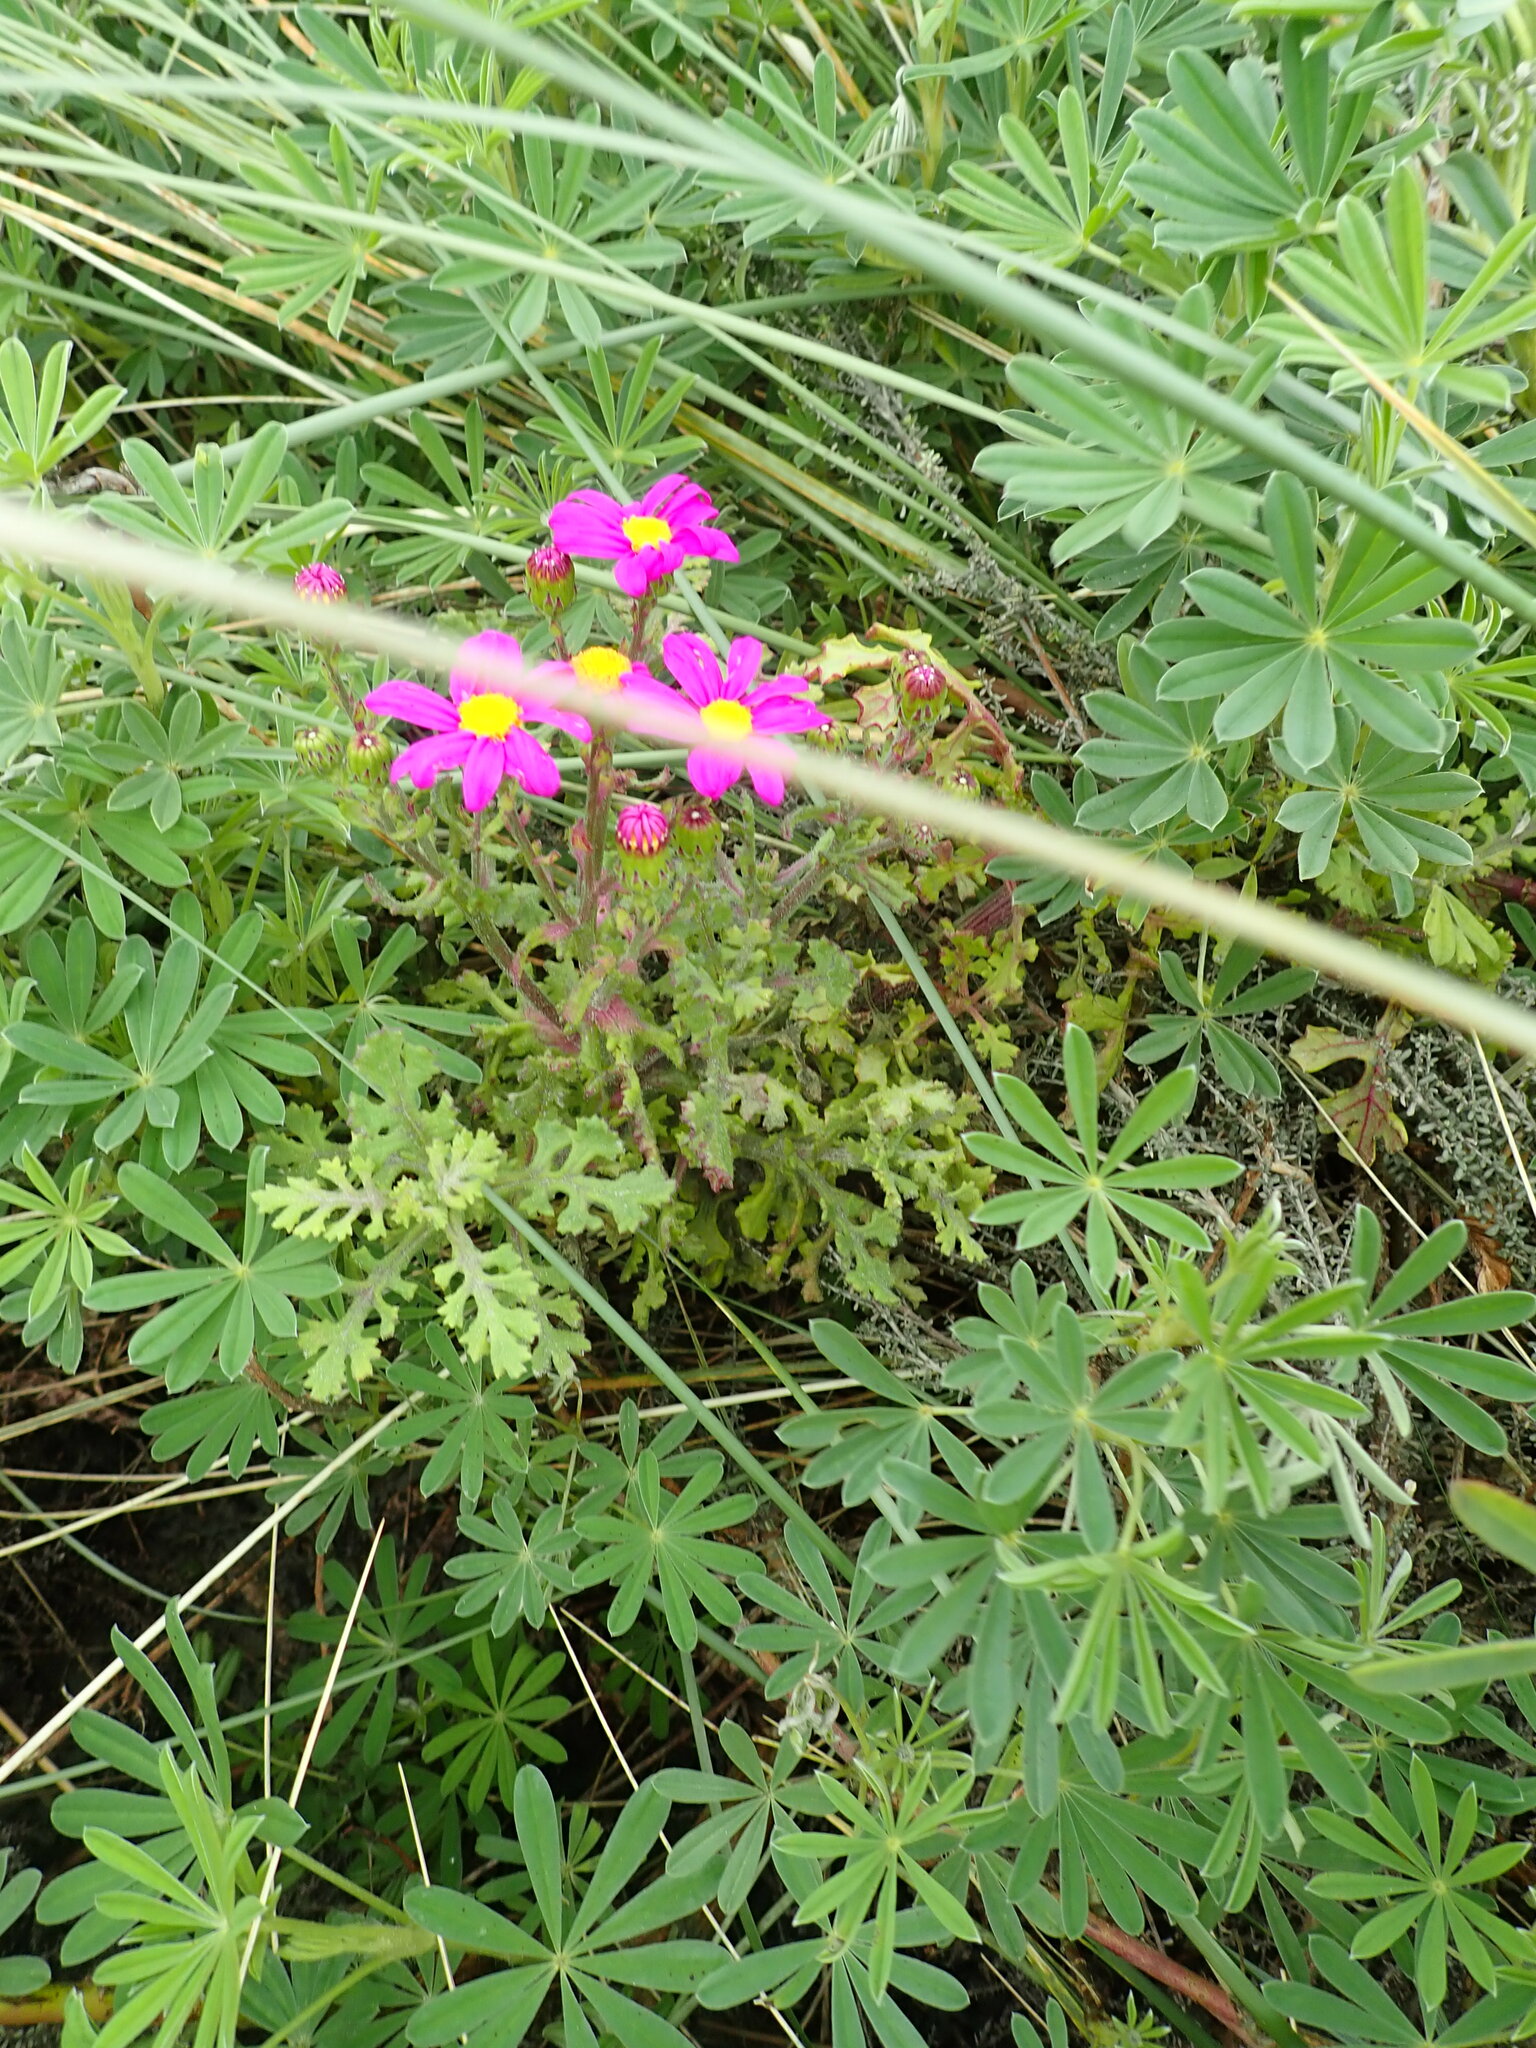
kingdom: Plantae
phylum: Tracheophyta
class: Magnoliopsida
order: Asterales
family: Asteraceae
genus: Senecio
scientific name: Senecio elegans
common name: Purple groundsel
